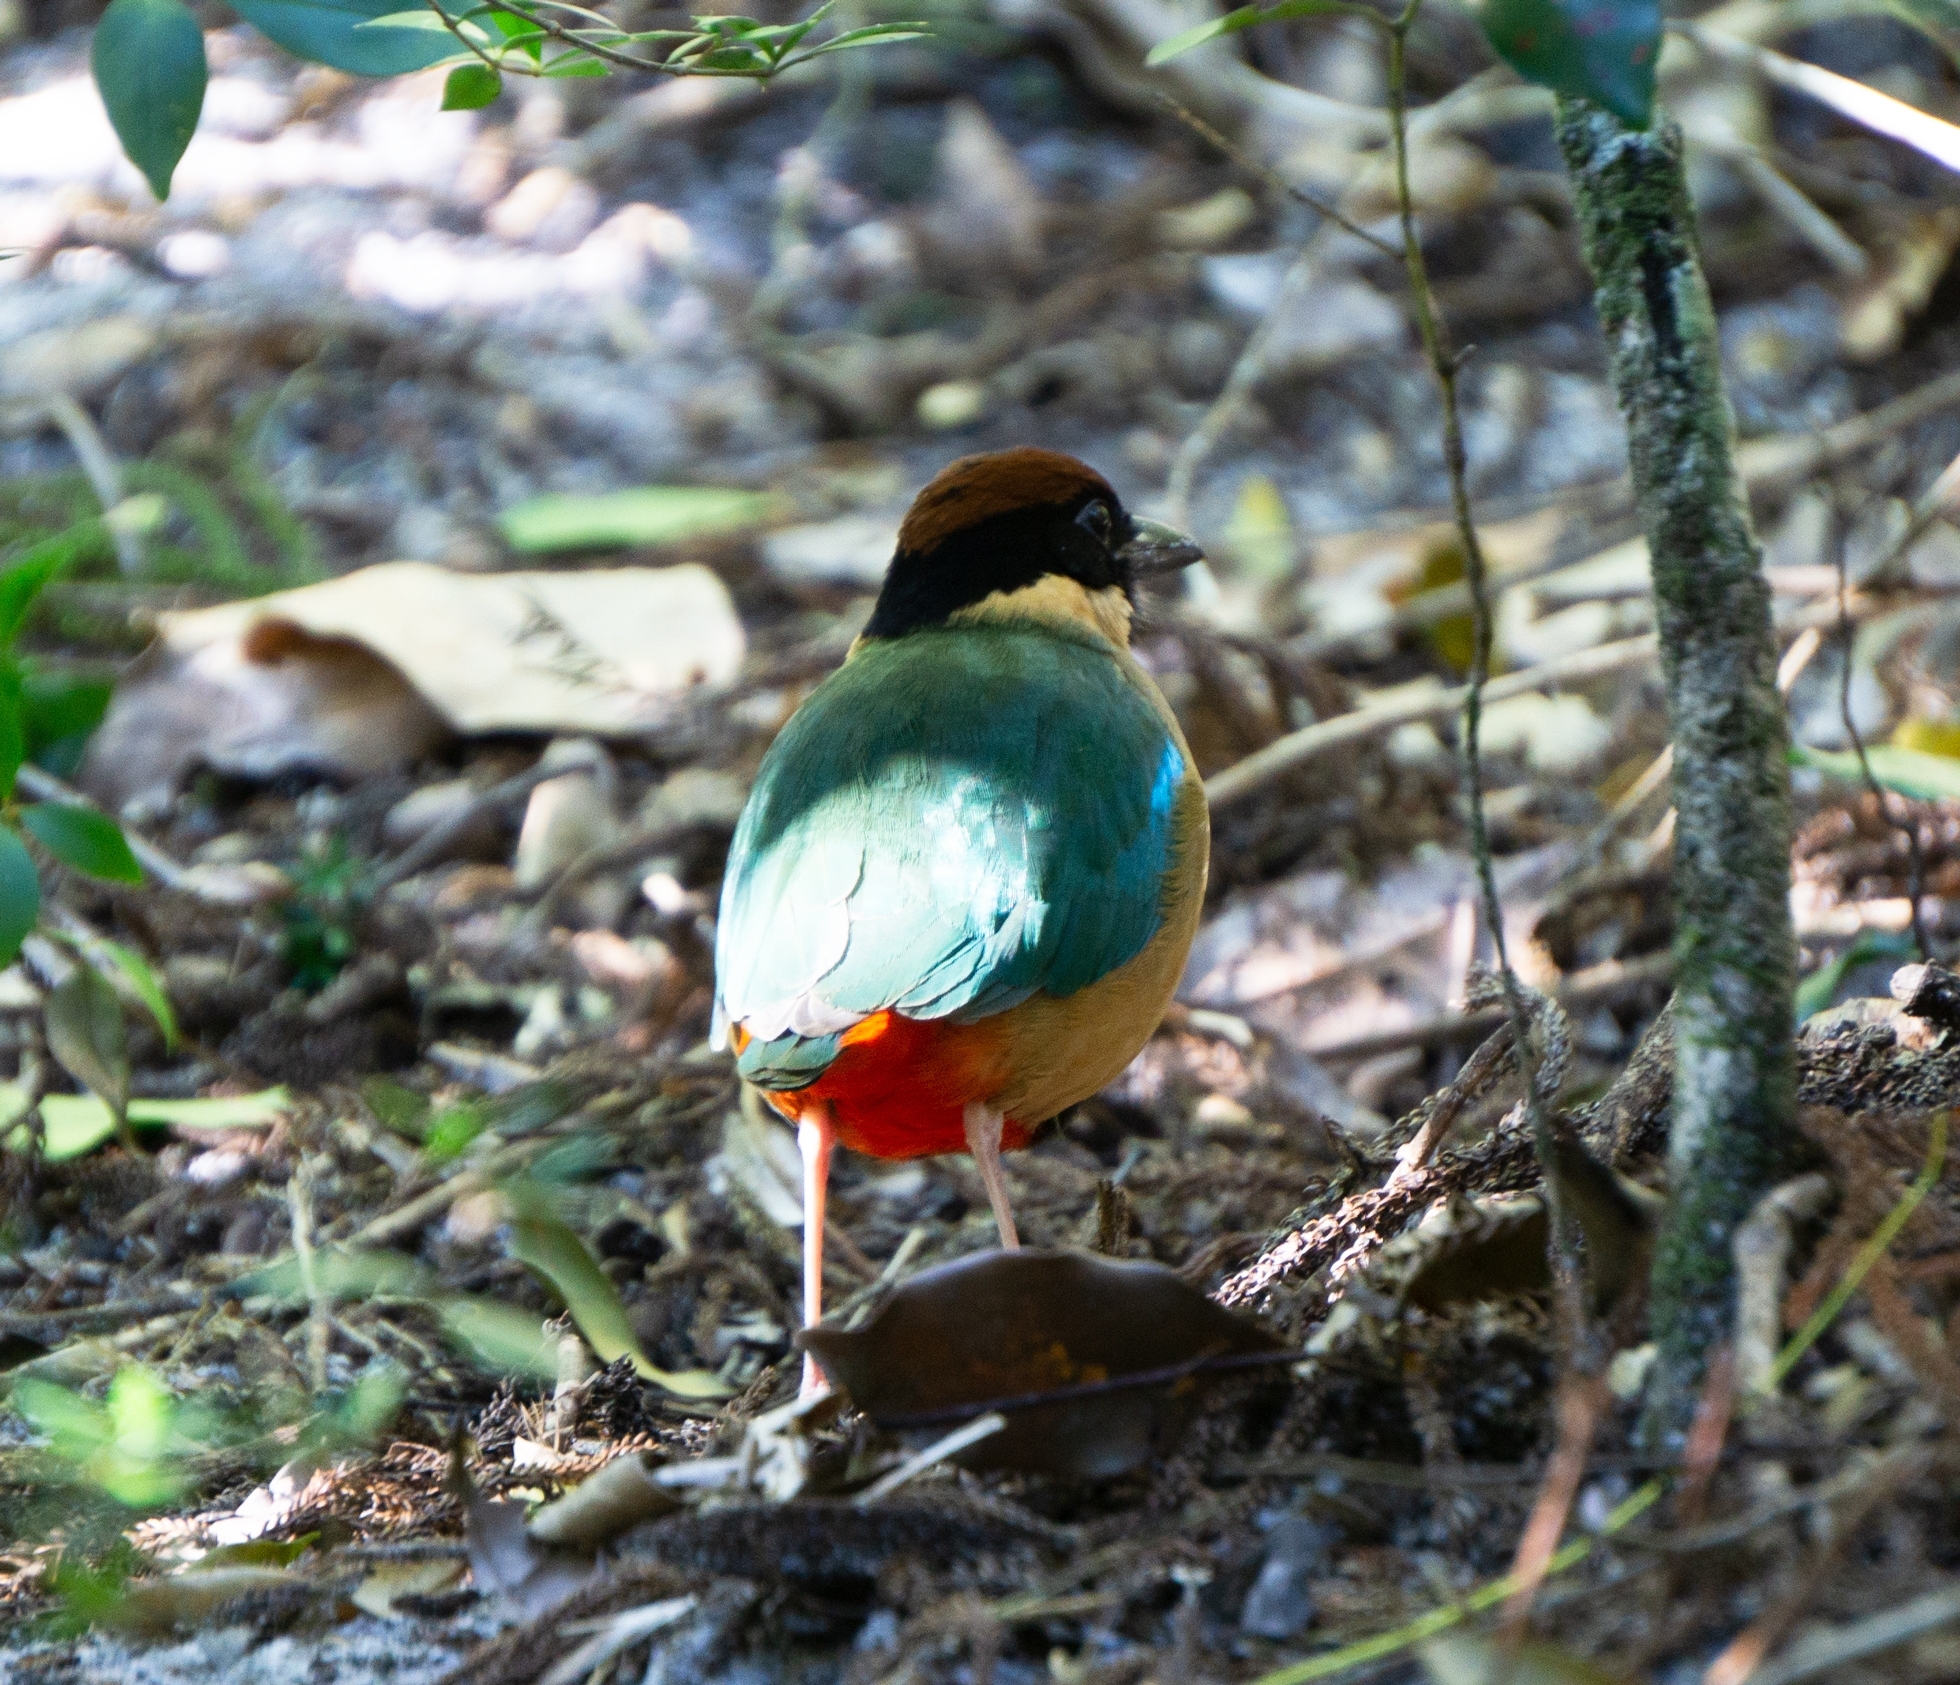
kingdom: Animalia
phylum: Chordata
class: Aves
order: Passeriformes
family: Pittidae
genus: Pitta
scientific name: Pitta versicolor
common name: Noisy pitta
